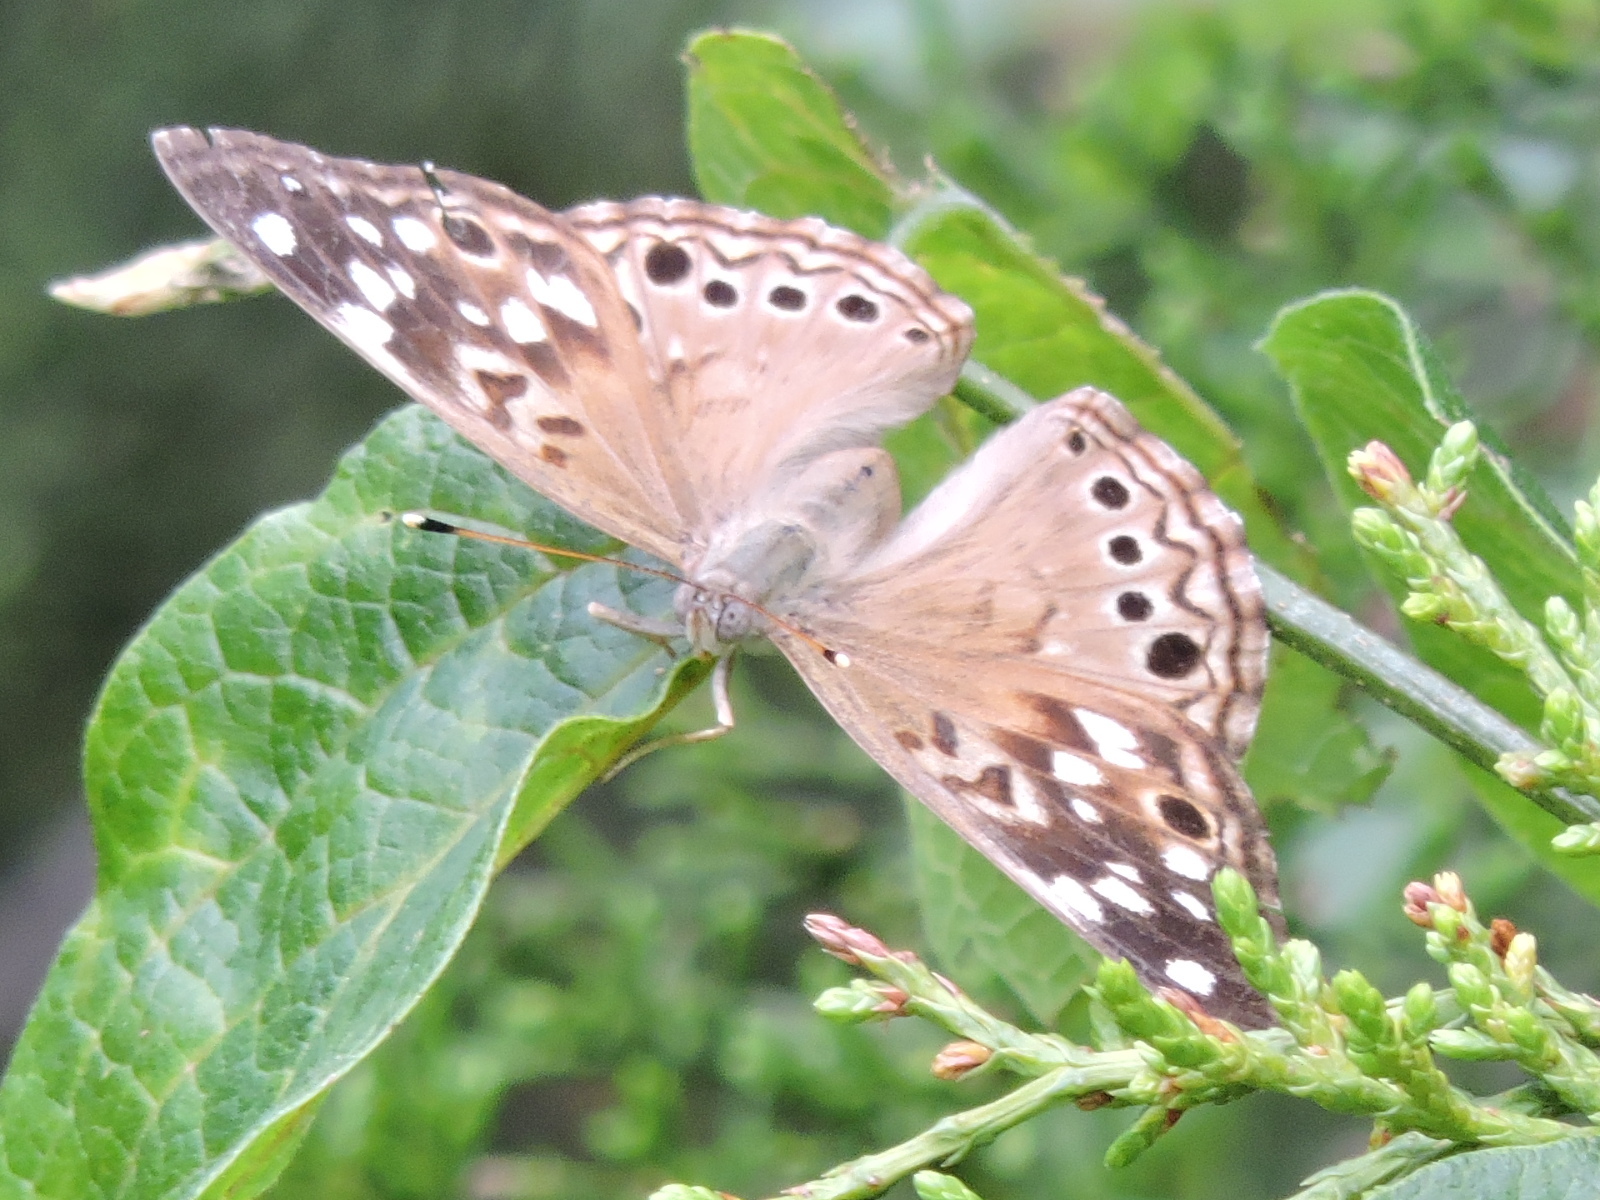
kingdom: Animalia
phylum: Arthropoda
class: Insecta
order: Lepidoptera
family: Nymphalidae
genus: Asterocampa
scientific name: Asterocampa celtis
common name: Hackberry emperor
